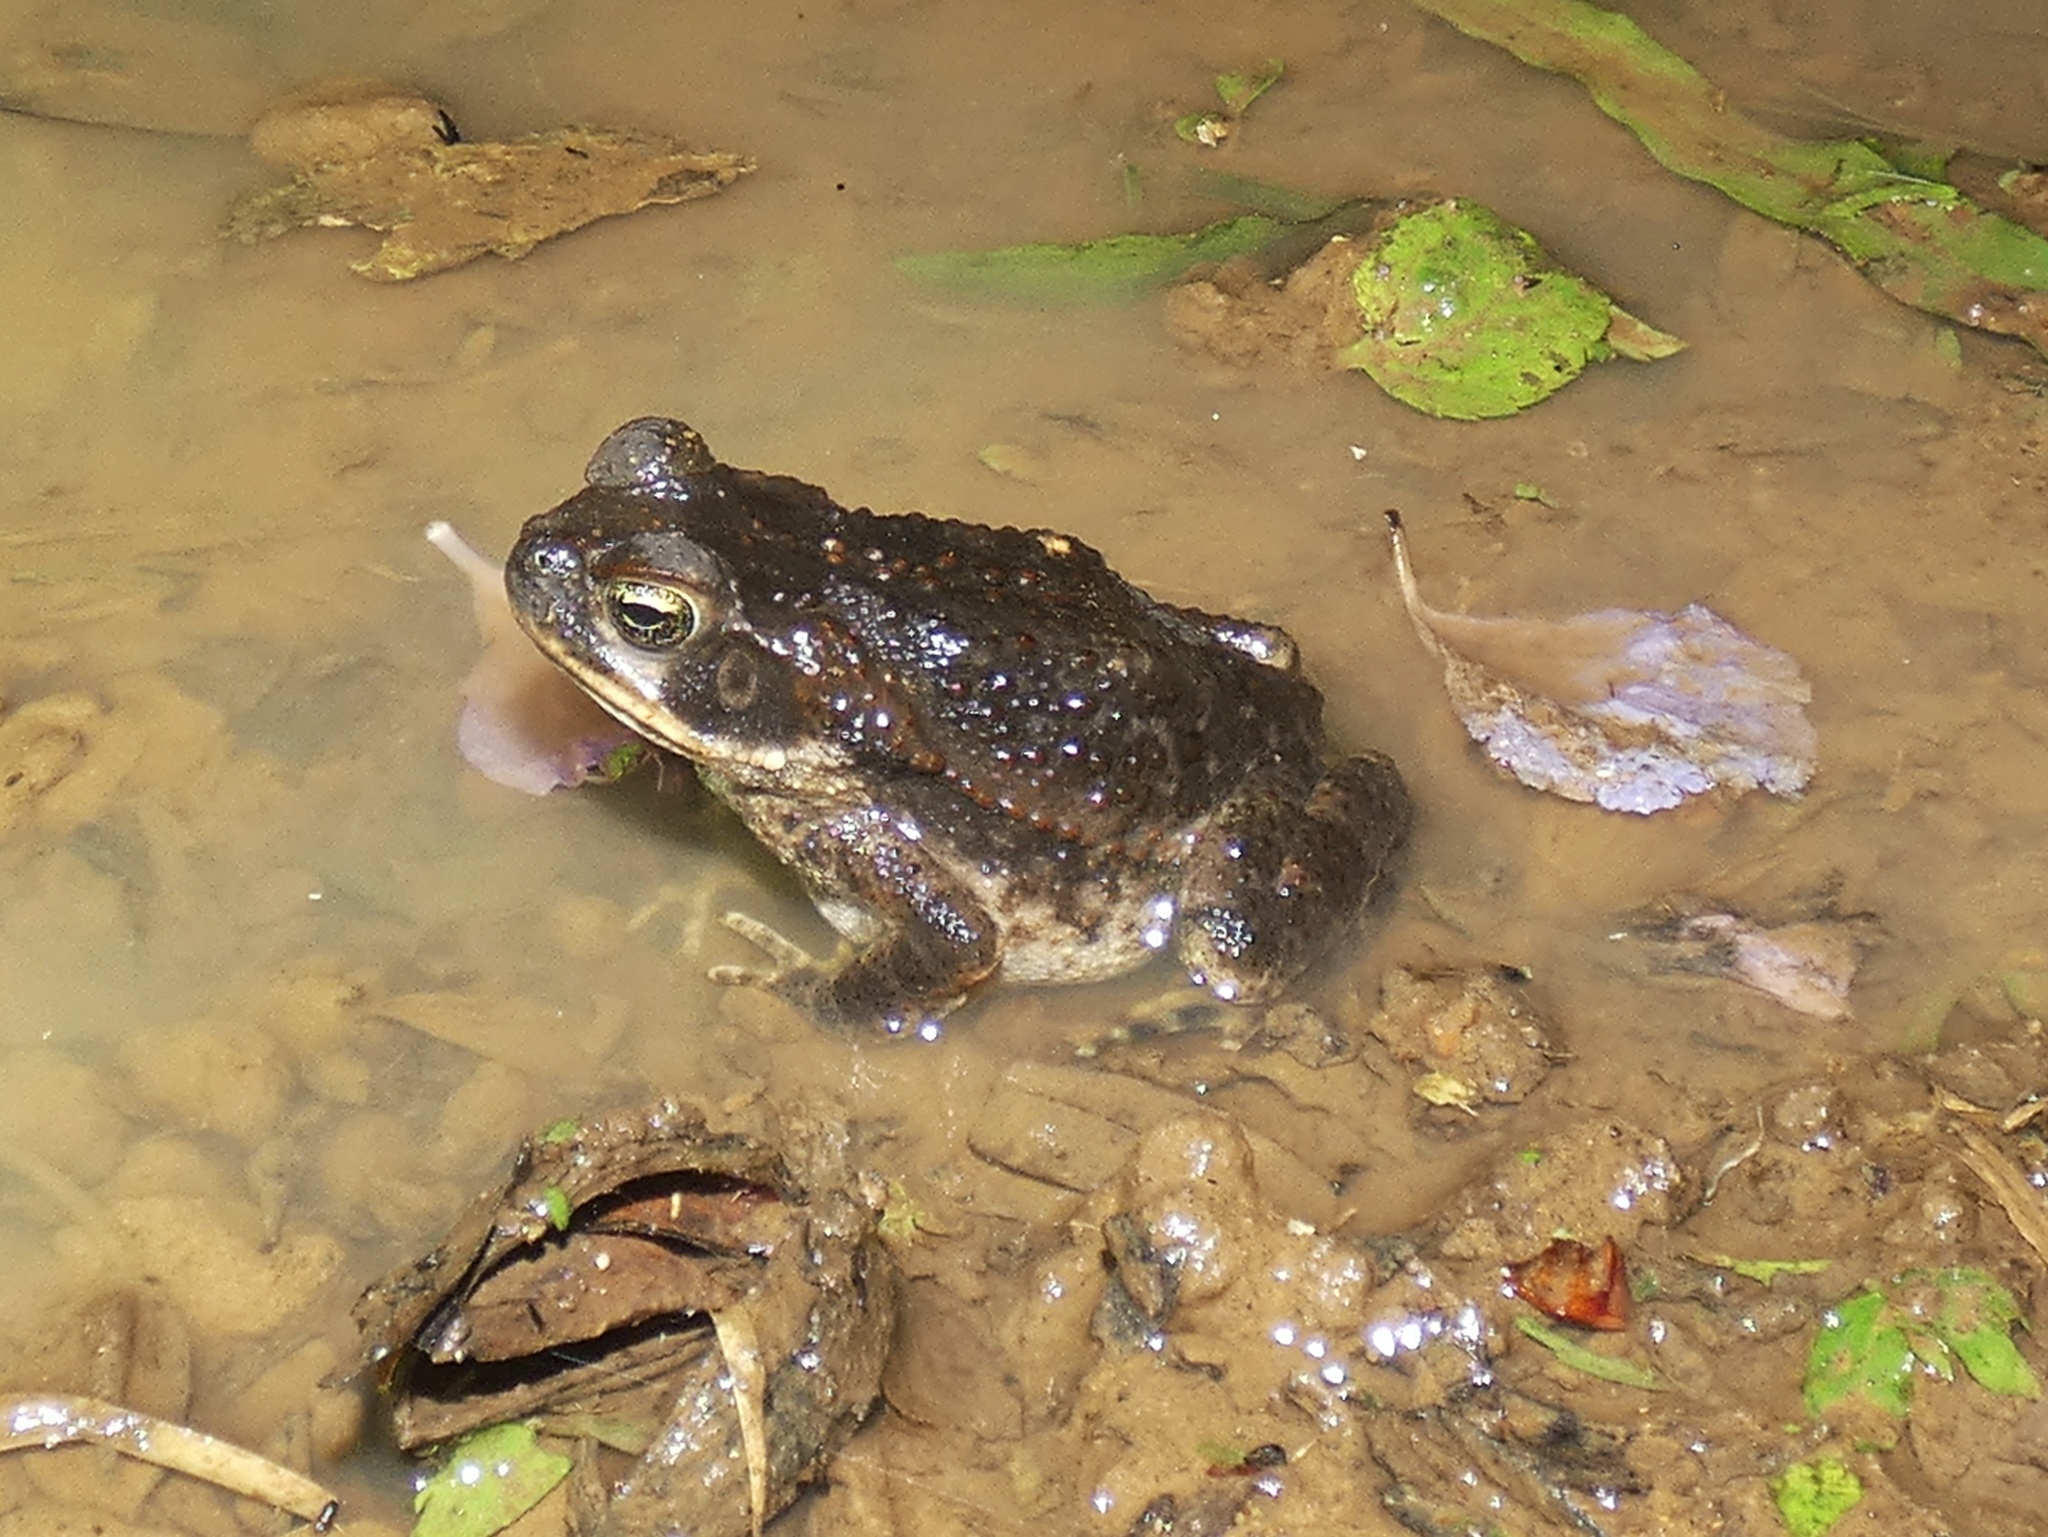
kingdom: Animalia
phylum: Chordata
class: Amphibia
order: Anura
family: Bufonidae
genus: Rhinella
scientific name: Rhinella horribilis
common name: Mesoamerican cane toad
